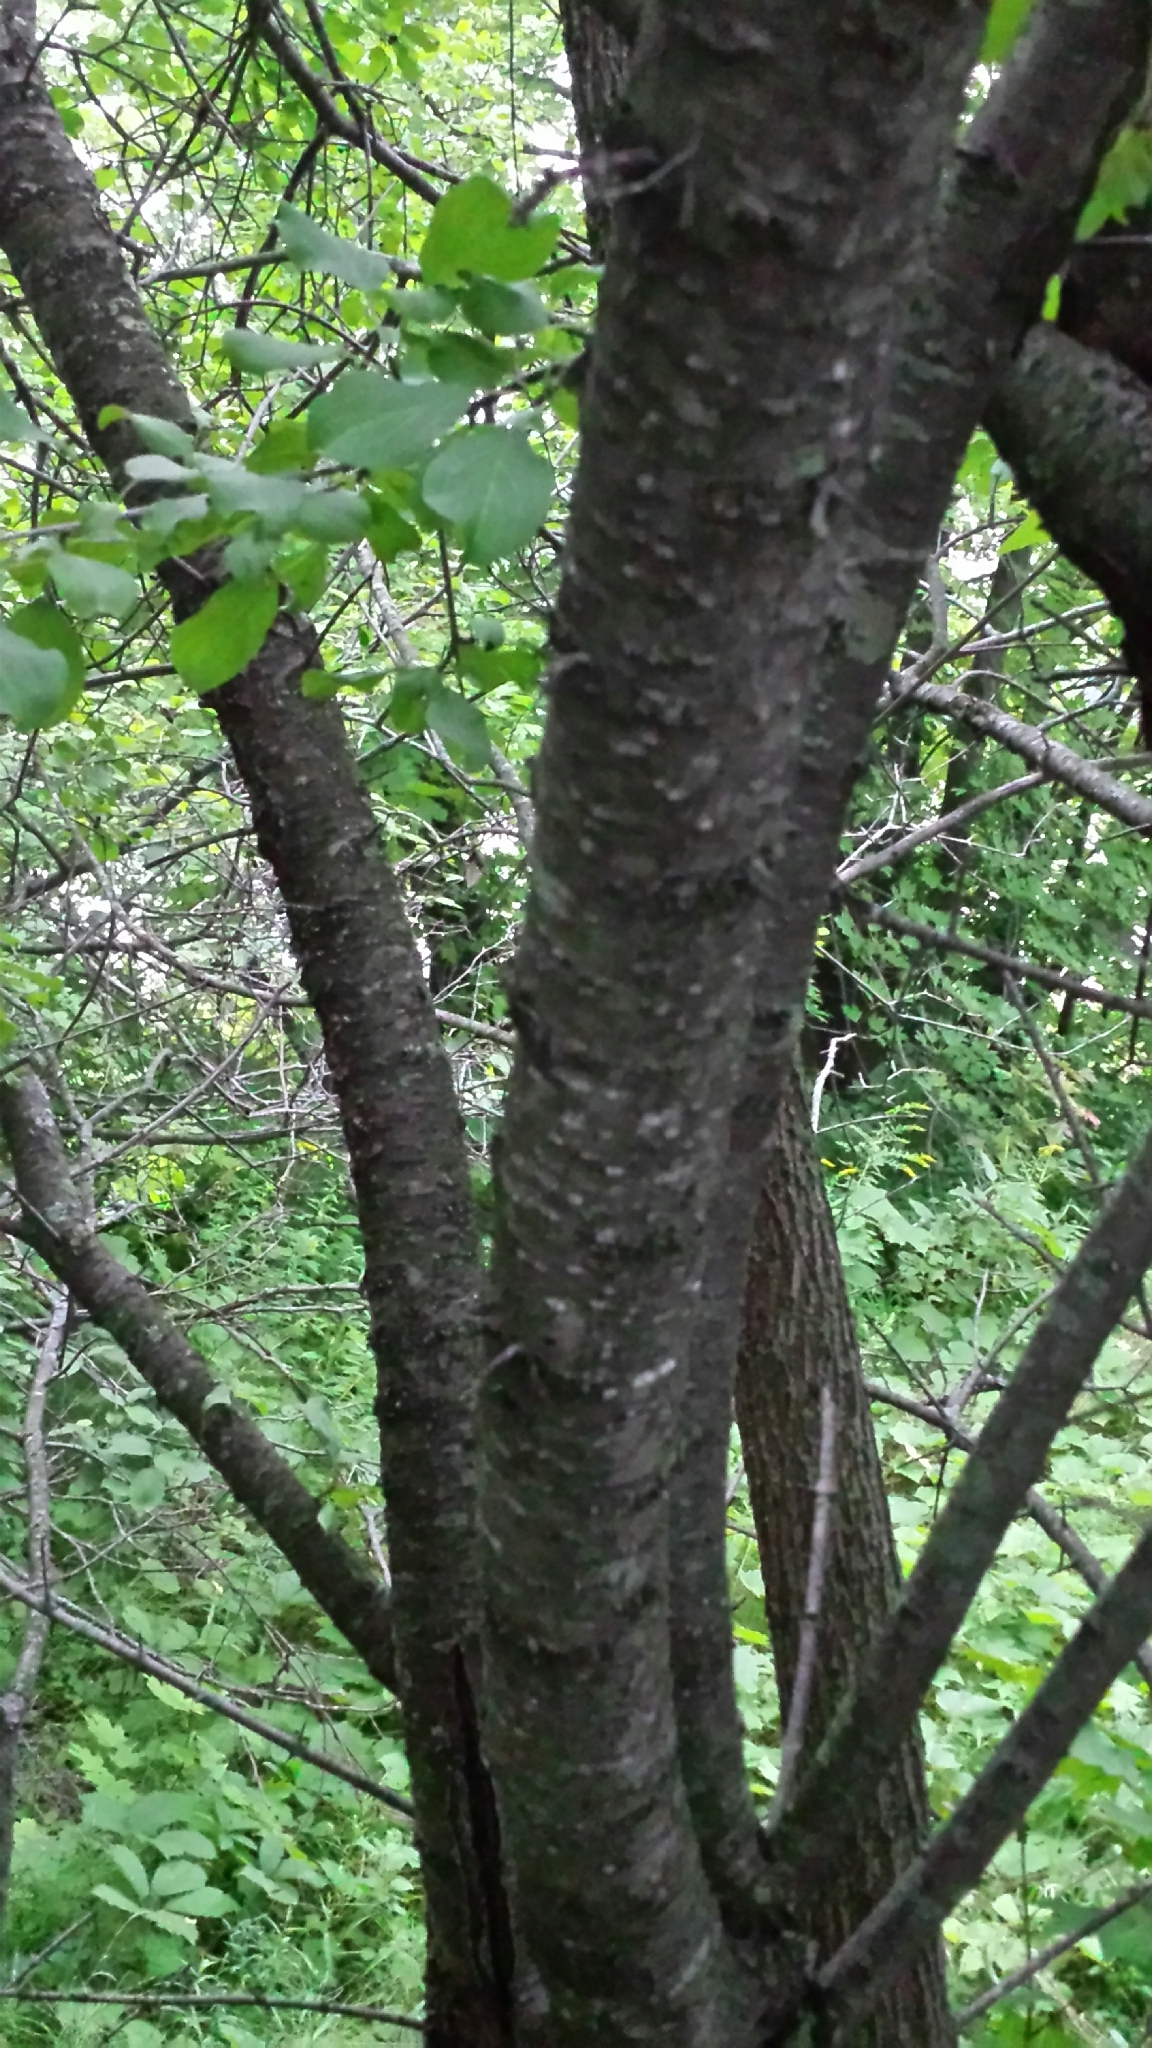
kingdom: Plantae
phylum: Tracheophyta
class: Magnoliopsida
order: Rosales
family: Rhamnaceae
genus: Rhamnus
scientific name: Rhamnus cathartica
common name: Common buckthorn
